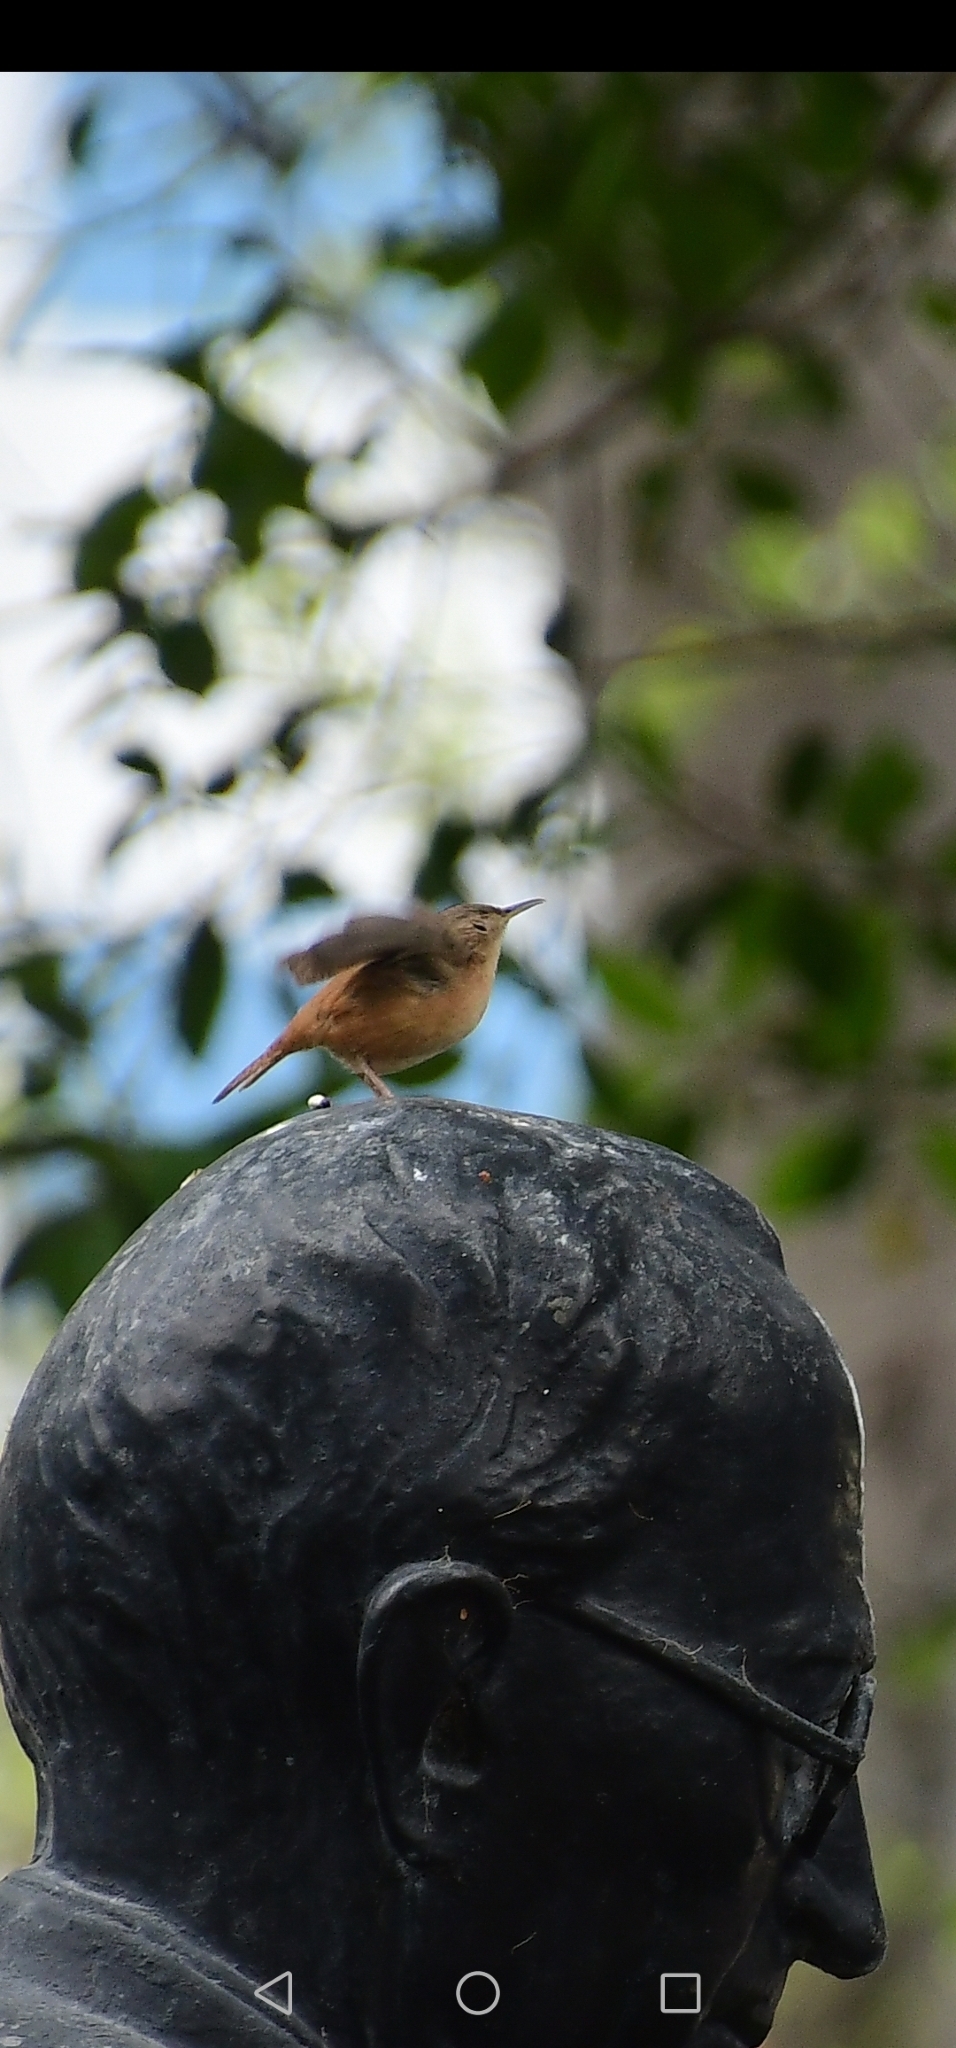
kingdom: Animalia
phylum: Chordata
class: Aves
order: Passeriformes
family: Troglodytidae
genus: Troglodytes
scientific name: Troglodytes aedon
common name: House wren
